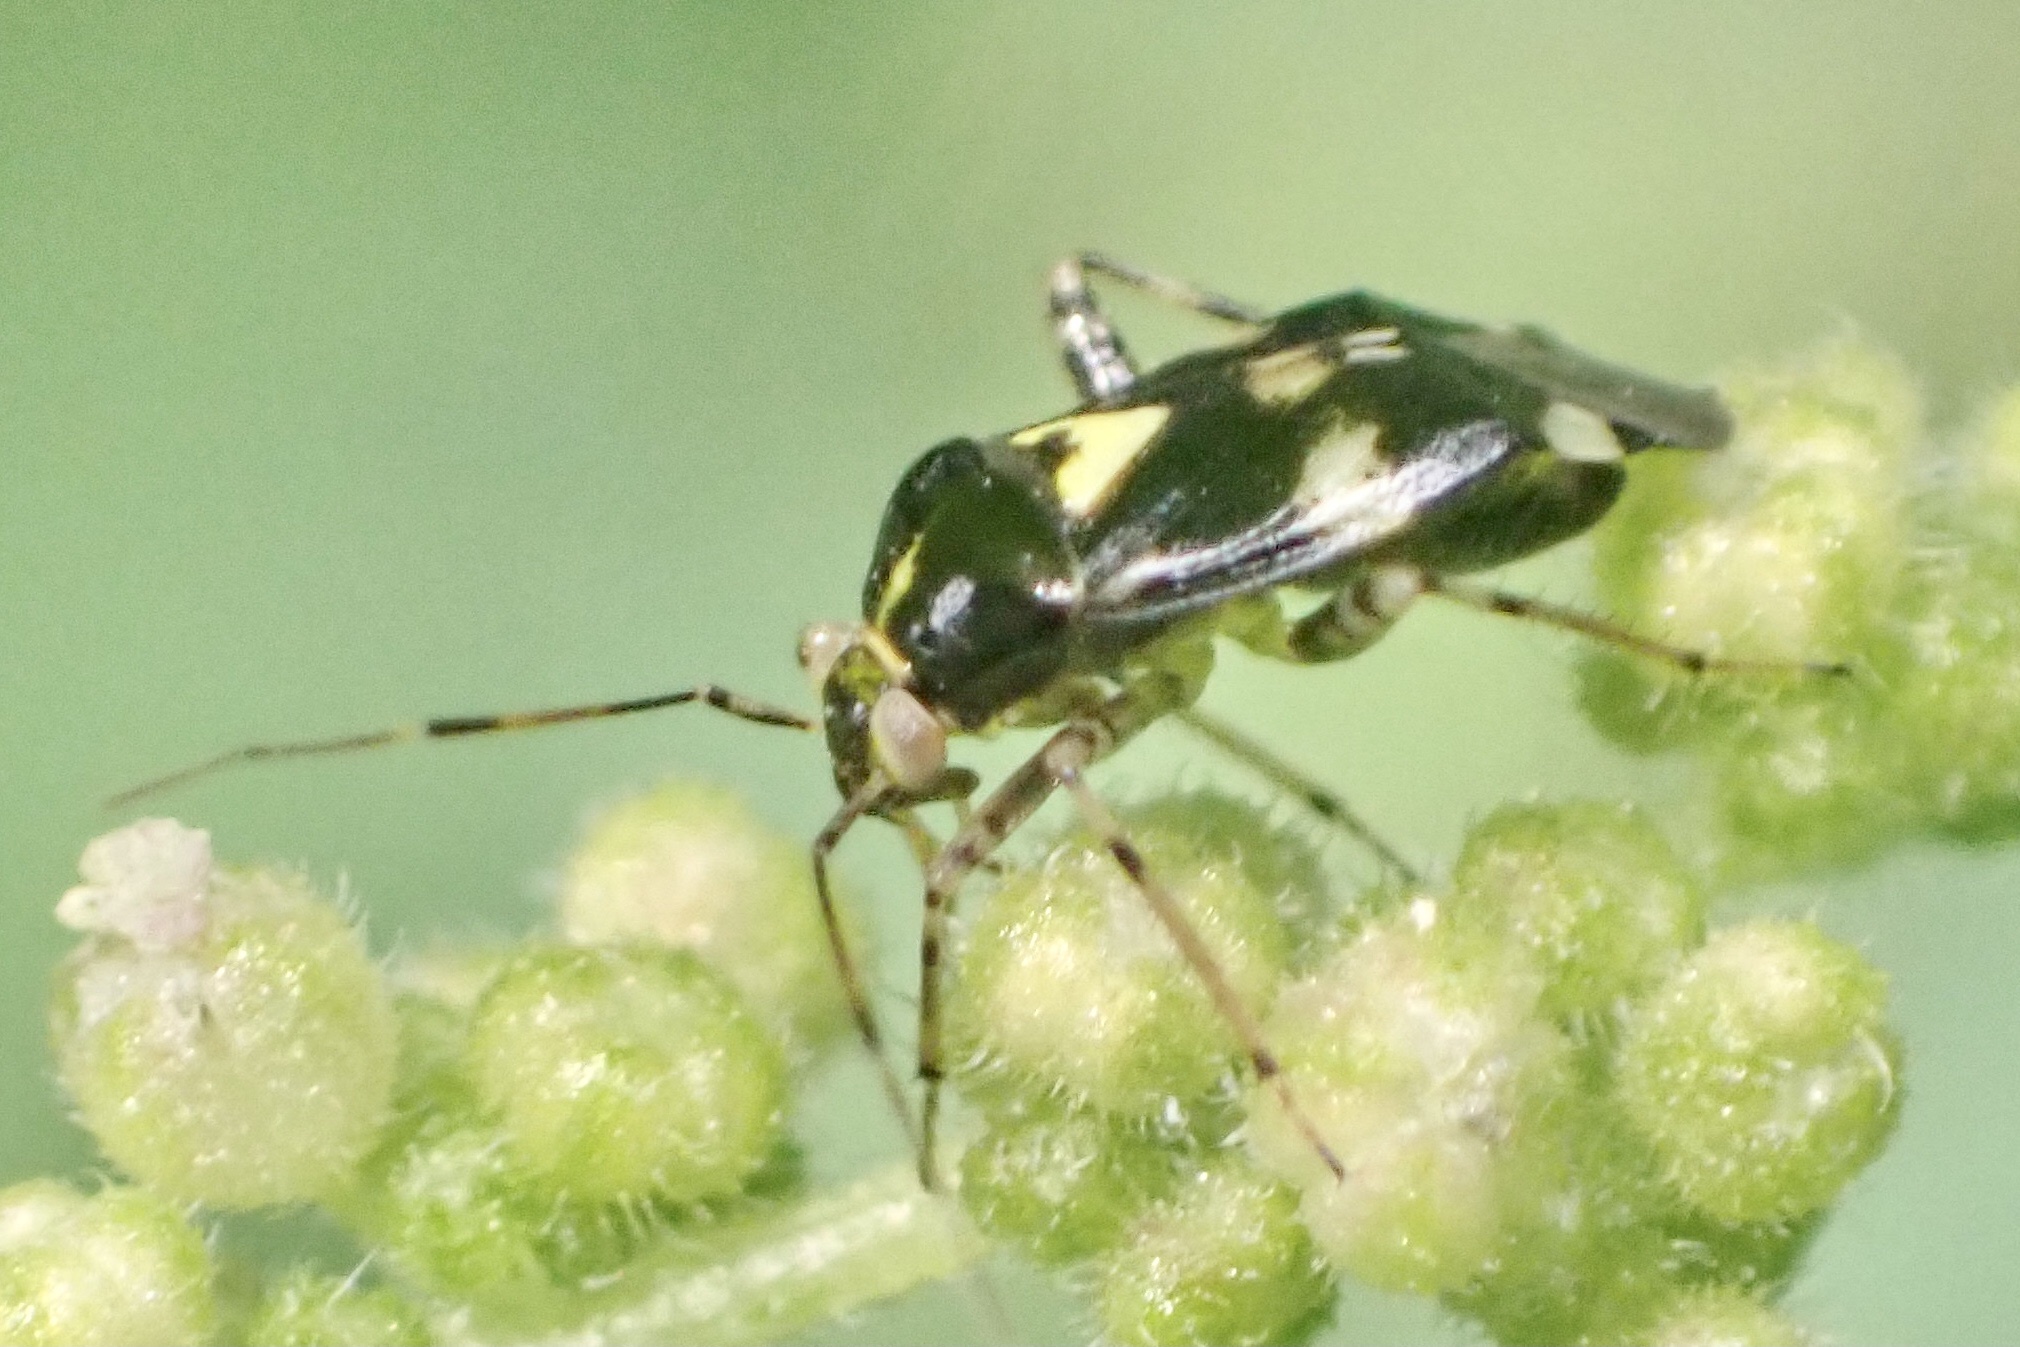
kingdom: Animalia
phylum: Arthropoda
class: Insecta
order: Hemiptera
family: Miridae
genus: Liocoris
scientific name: Liocoris tripustulatus
